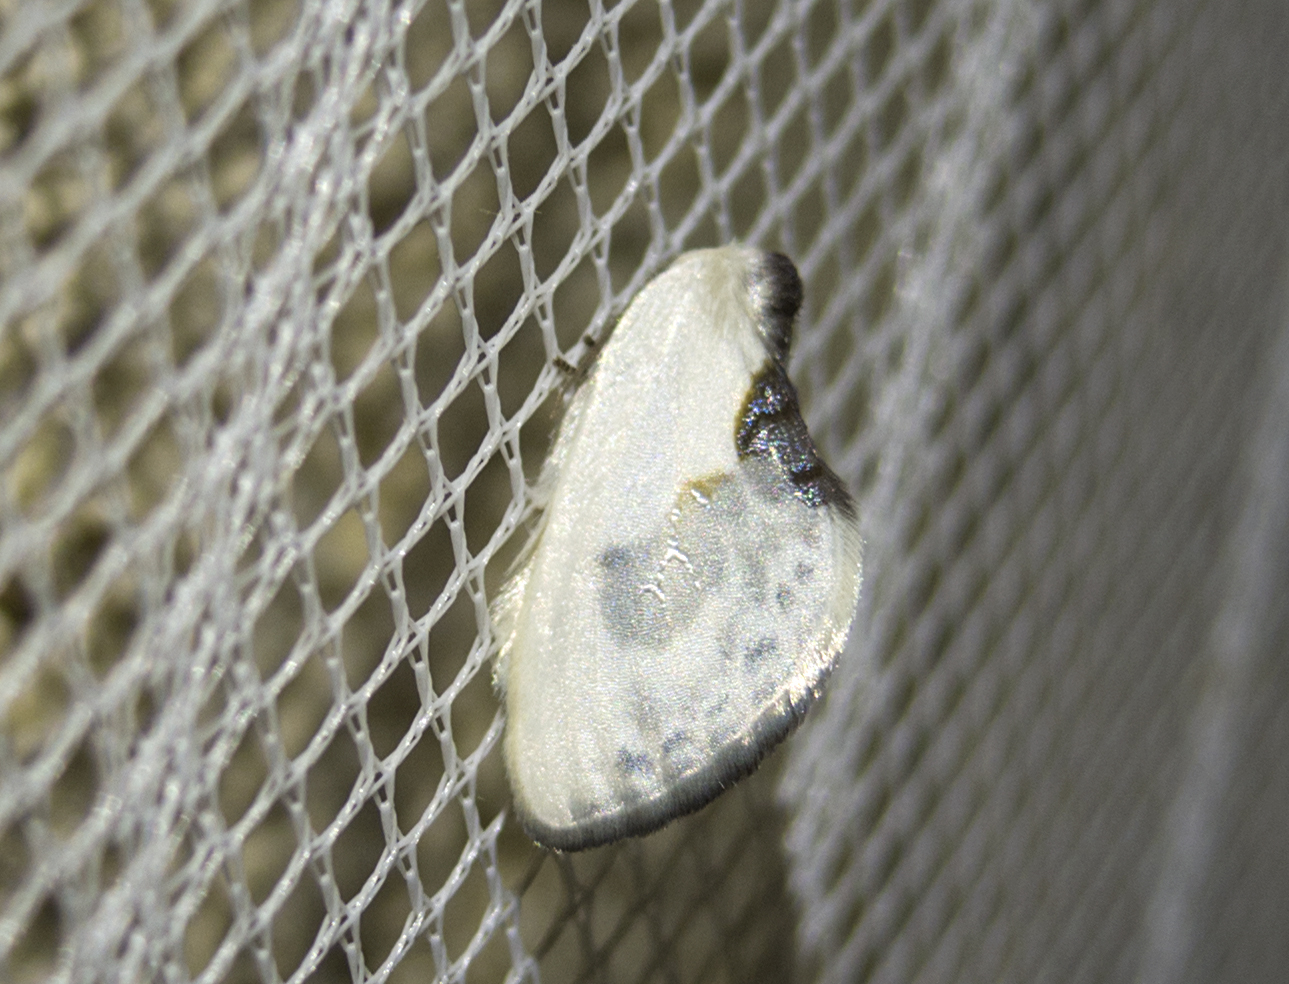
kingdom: Animalia
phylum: Arthropoda
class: Insecta
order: Lepidoptera
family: Drepanidae
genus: Cilix
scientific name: Cilix glaucata
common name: Chinese character
